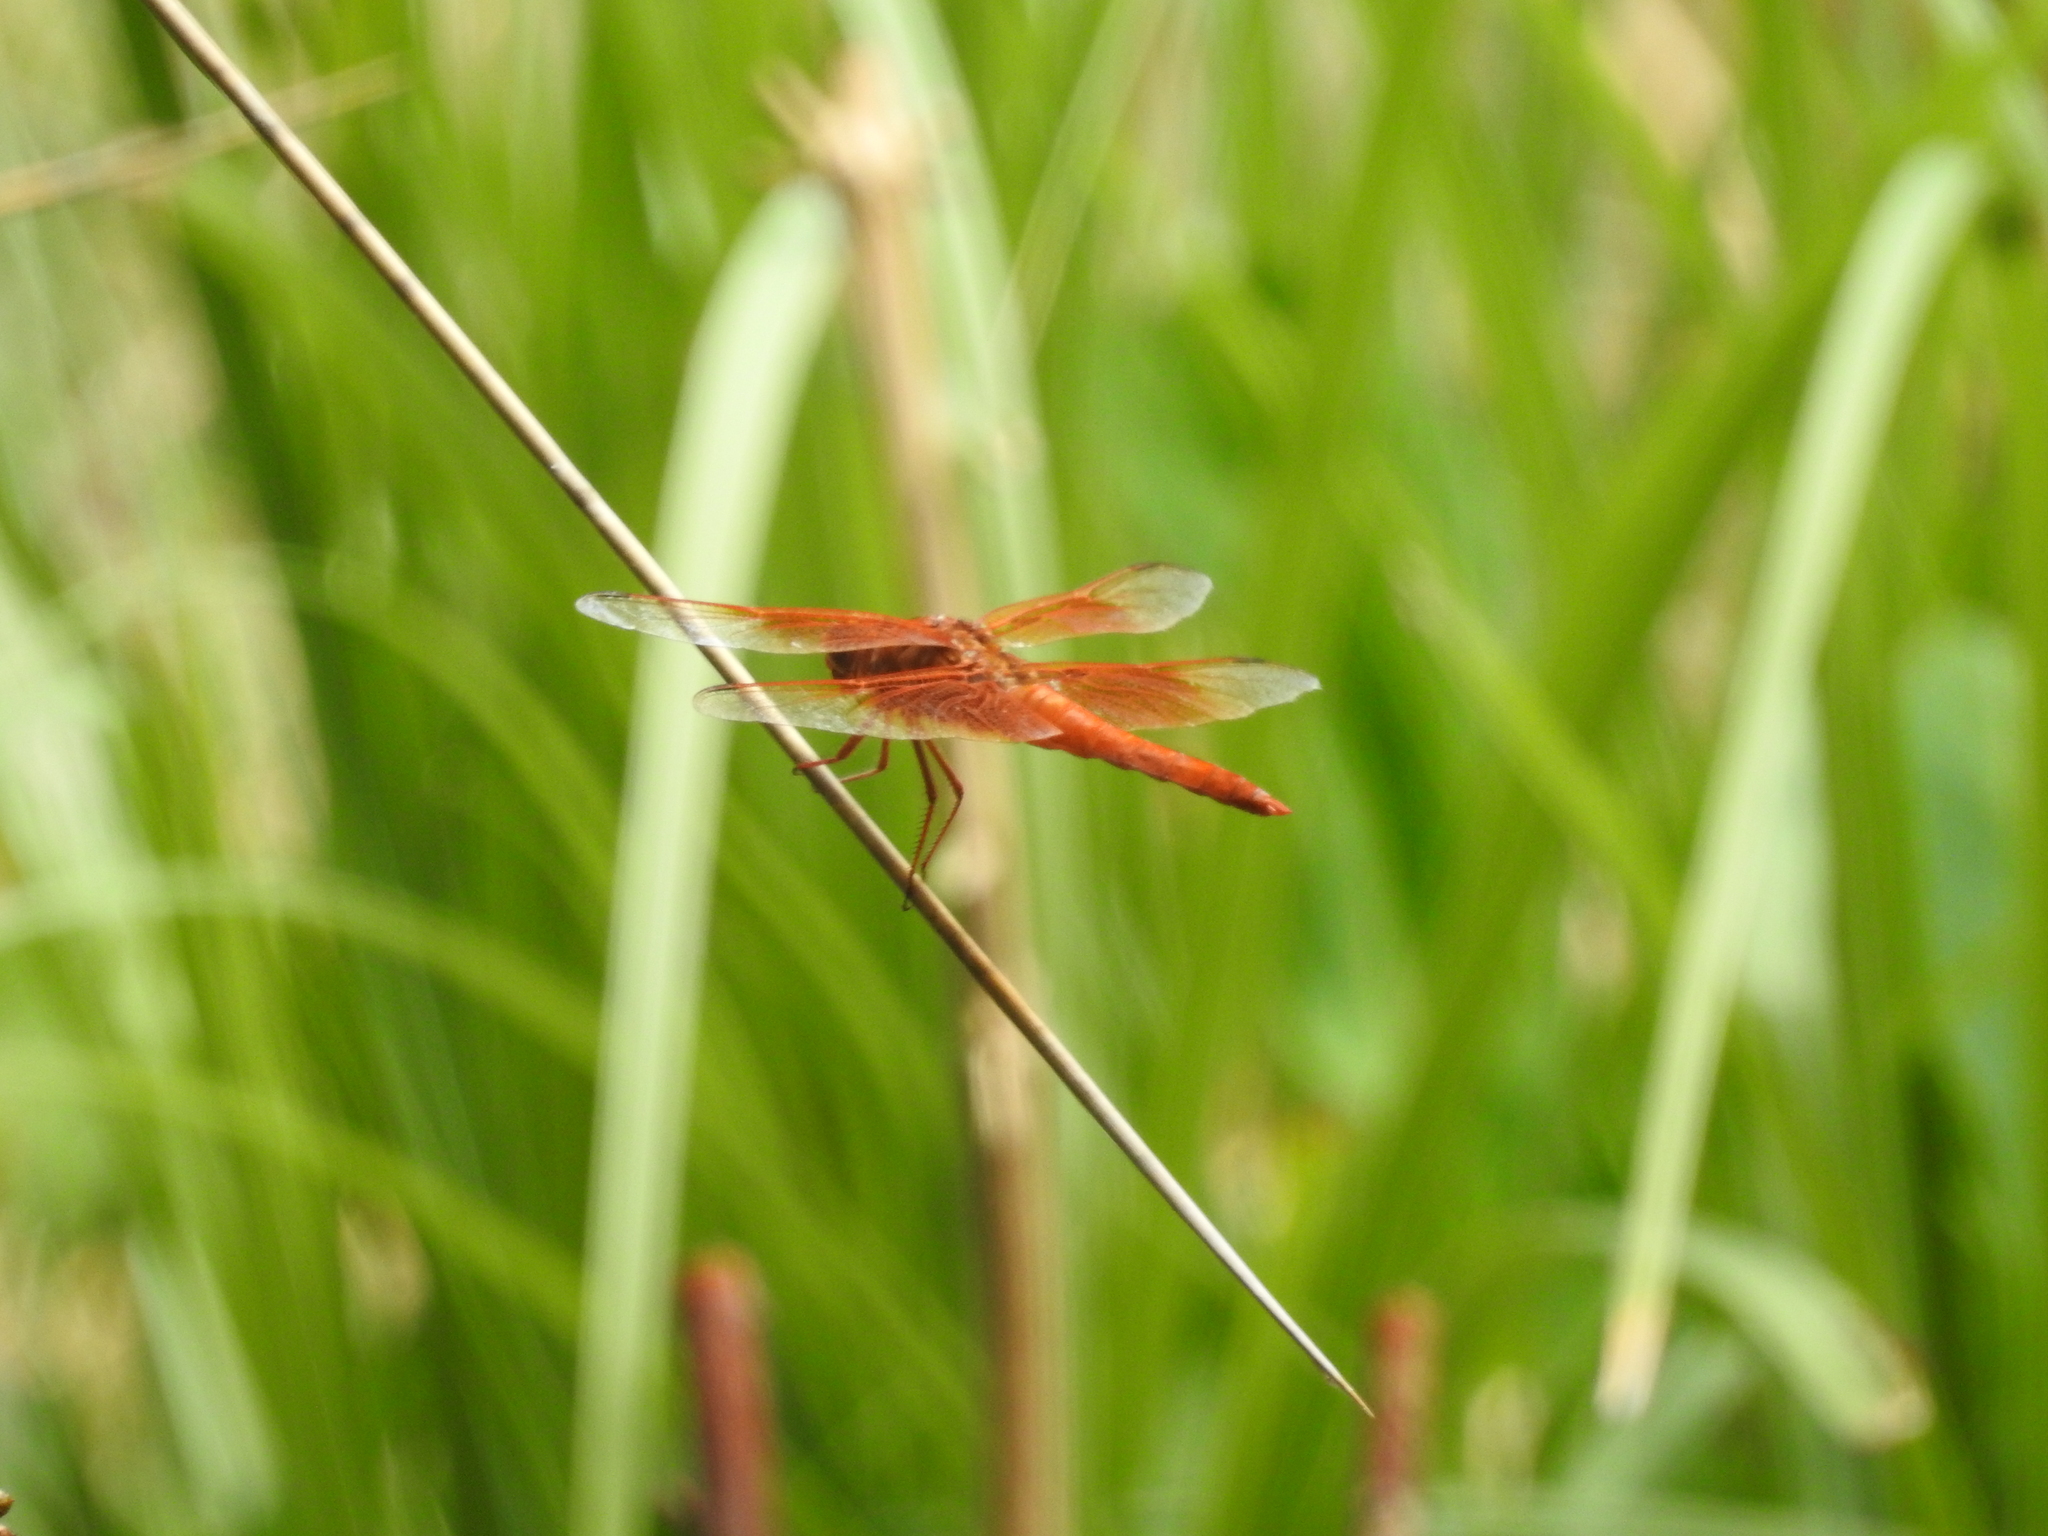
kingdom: Animalia
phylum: Arthropoda
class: Insecta
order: Odonata
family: Libellulidae
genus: Libellula
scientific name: Libellula saturata
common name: Flame skimmer
